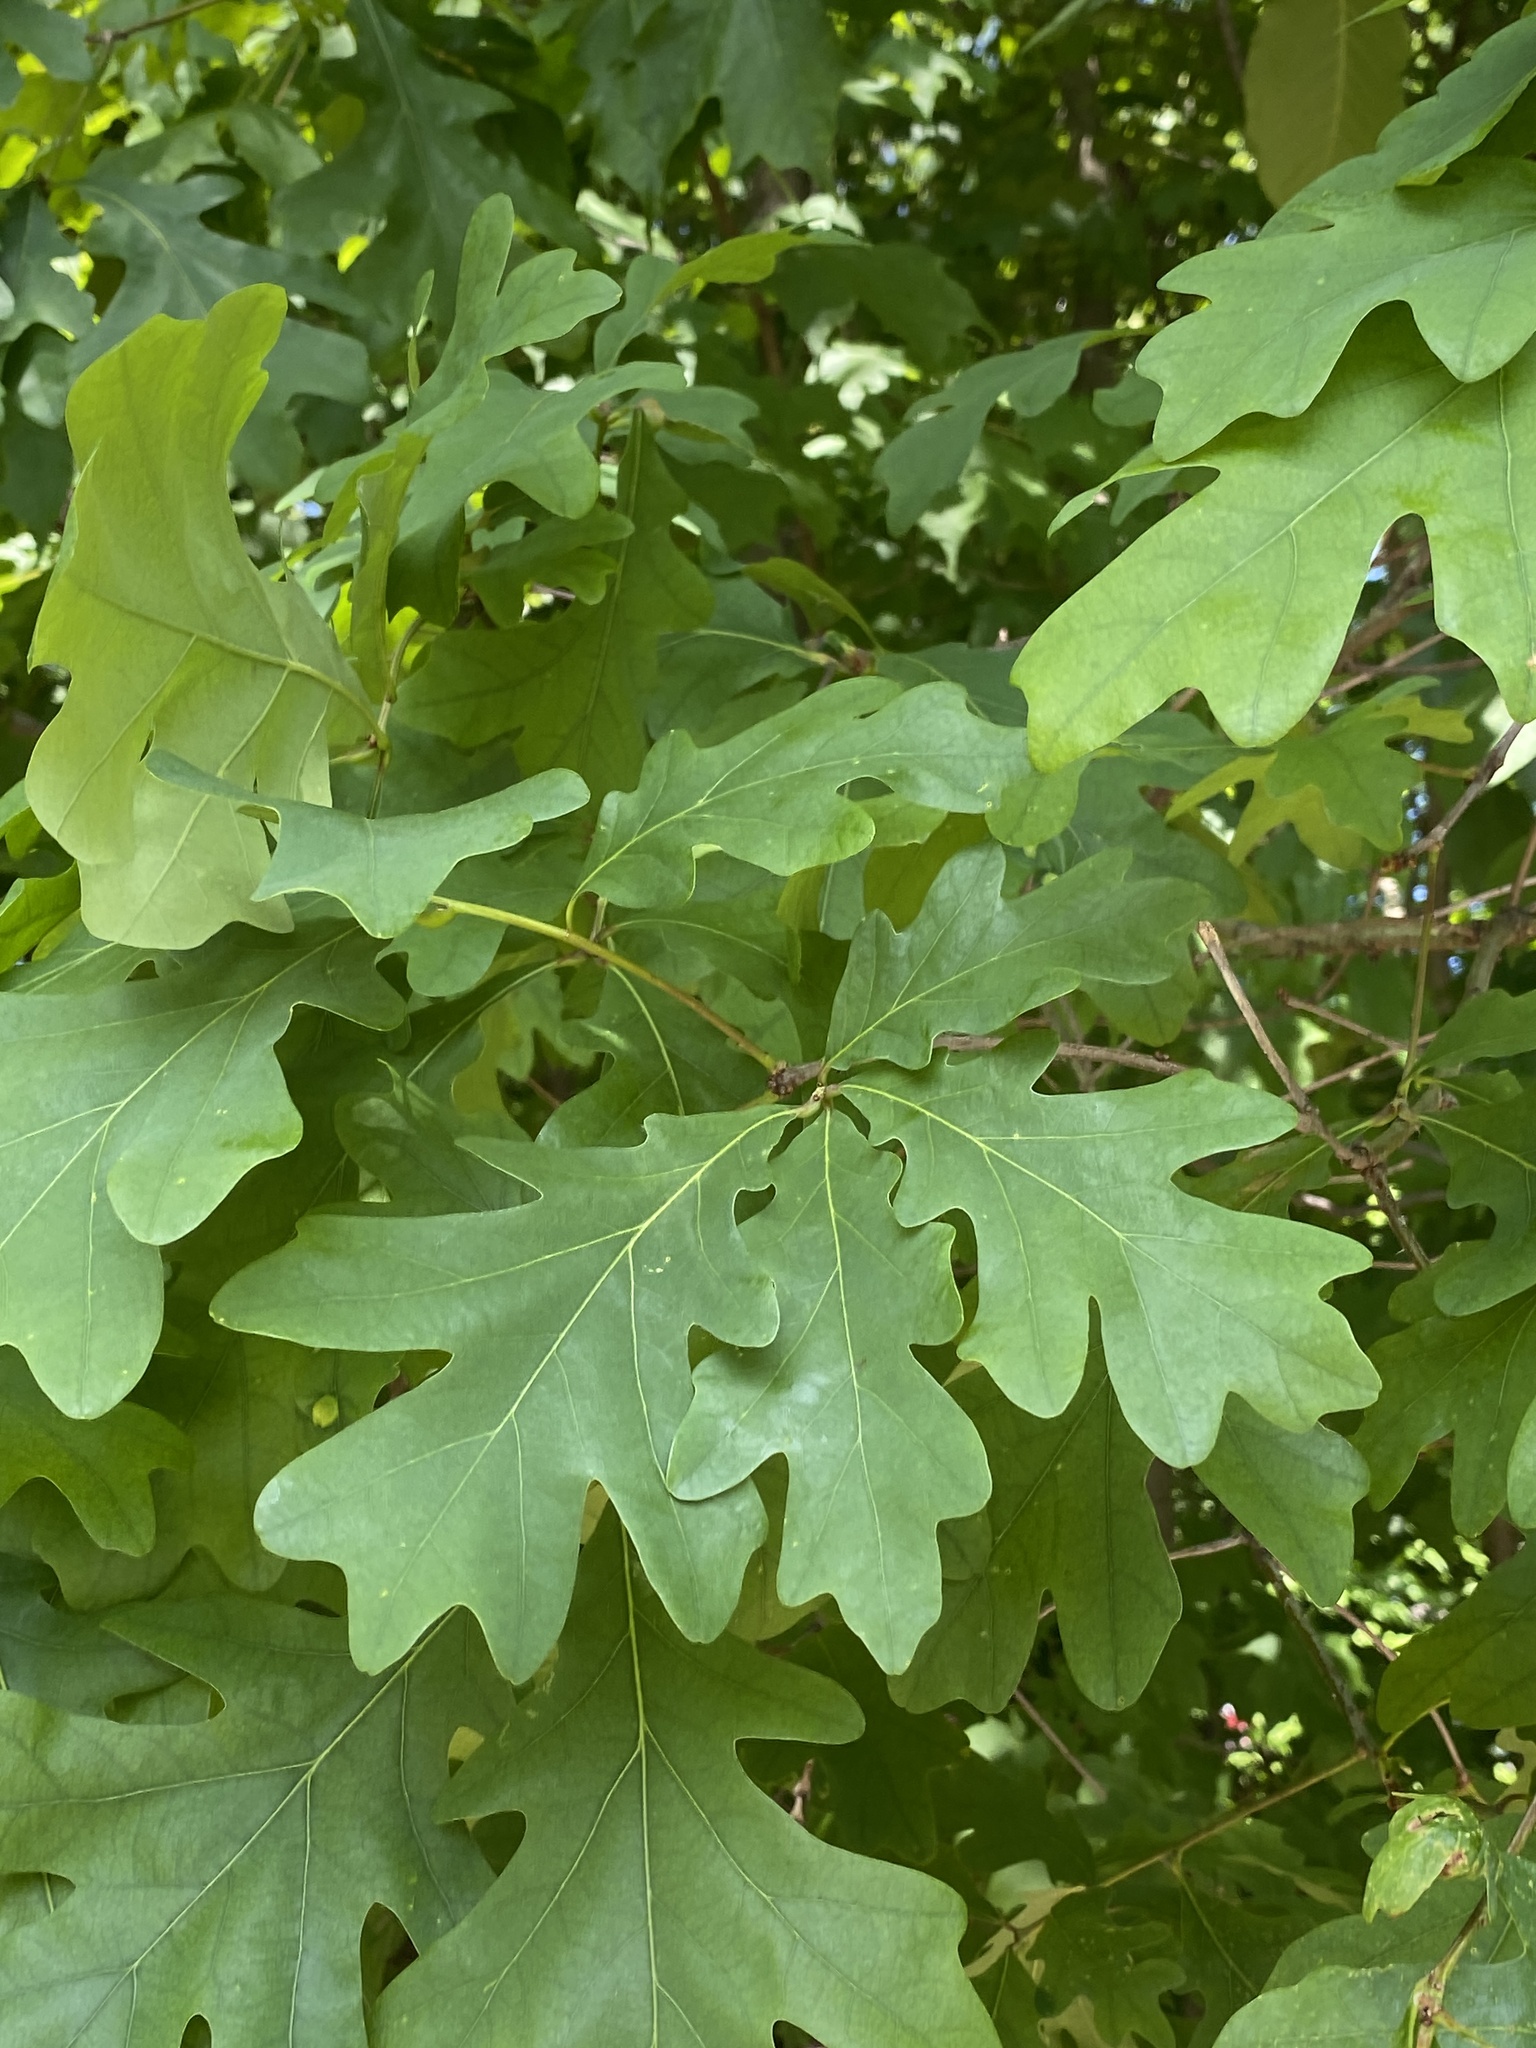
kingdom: Plantae
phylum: Tracheophyta
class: Magnoliopsida
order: Fagales
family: Fagaceae
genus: Quercus
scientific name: Quercus alba
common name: White oak
